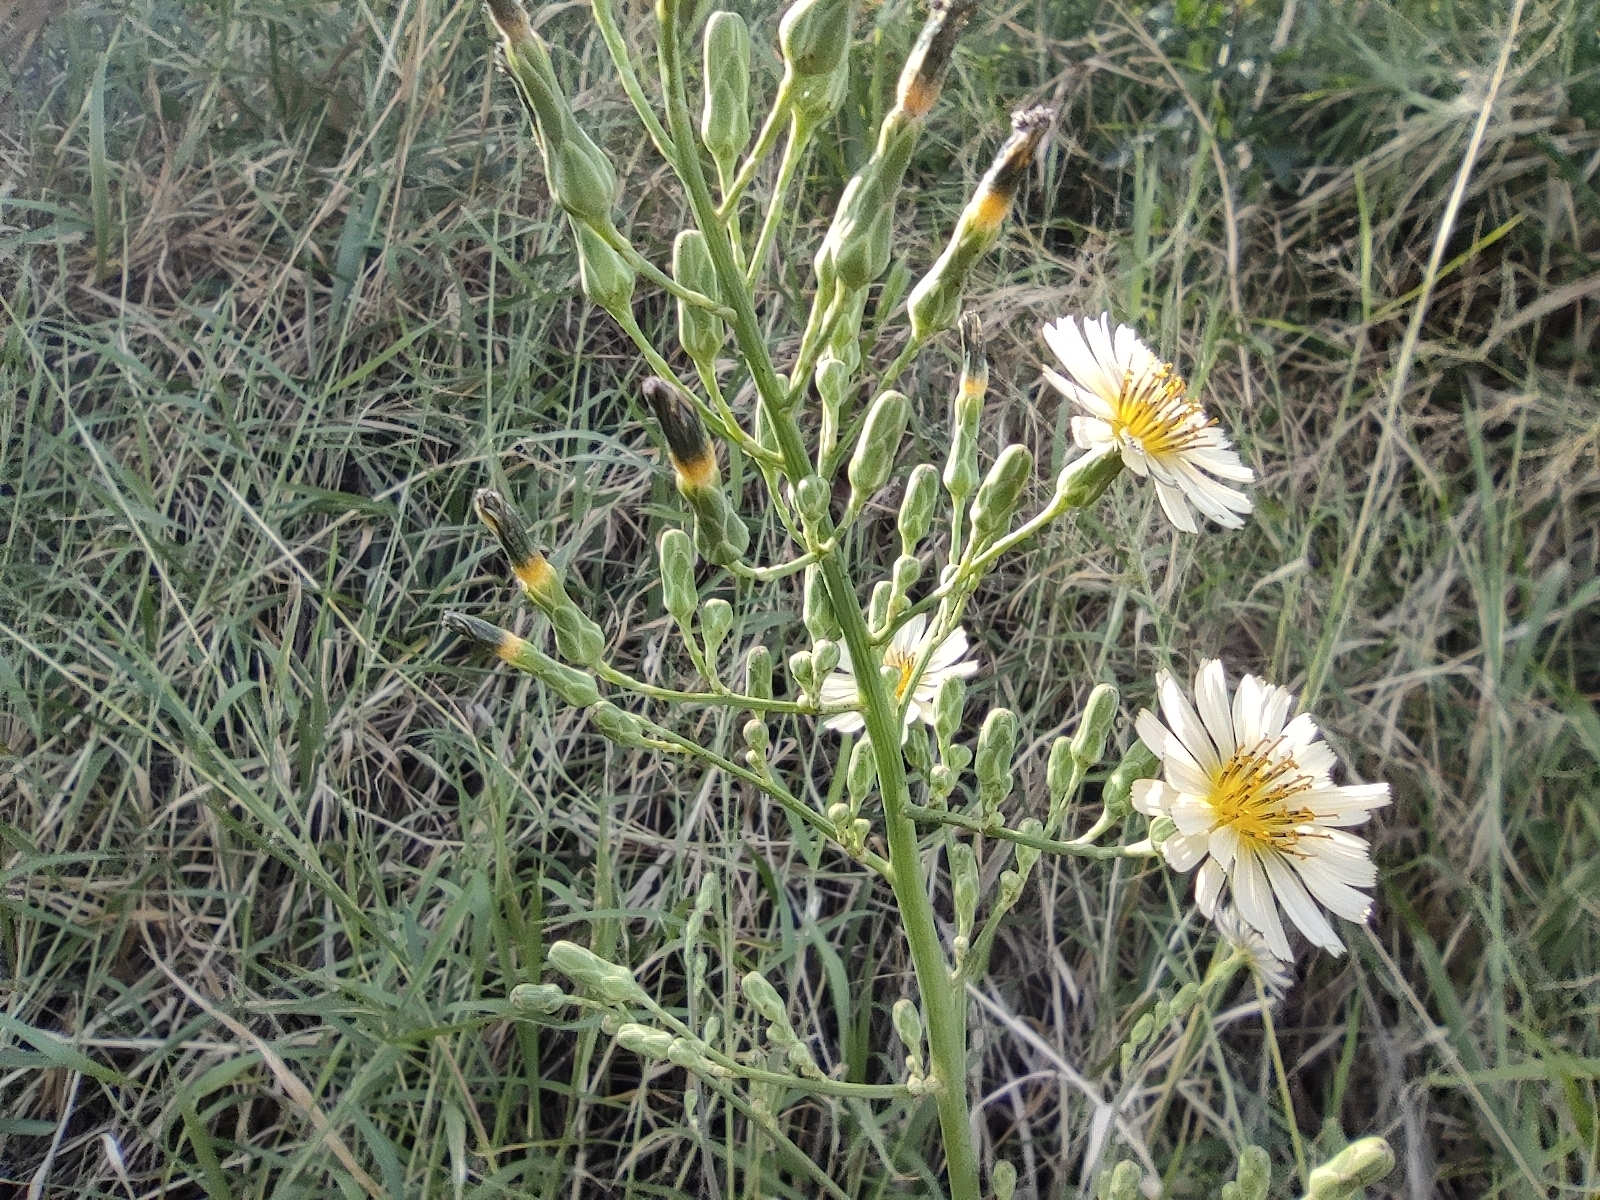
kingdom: Plantae
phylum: Tracheophyta
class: Magnoliopsida
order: Asterales
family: Asteraceae
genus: Lactuca
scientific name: Lactuca indica
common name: Wild lettuce
